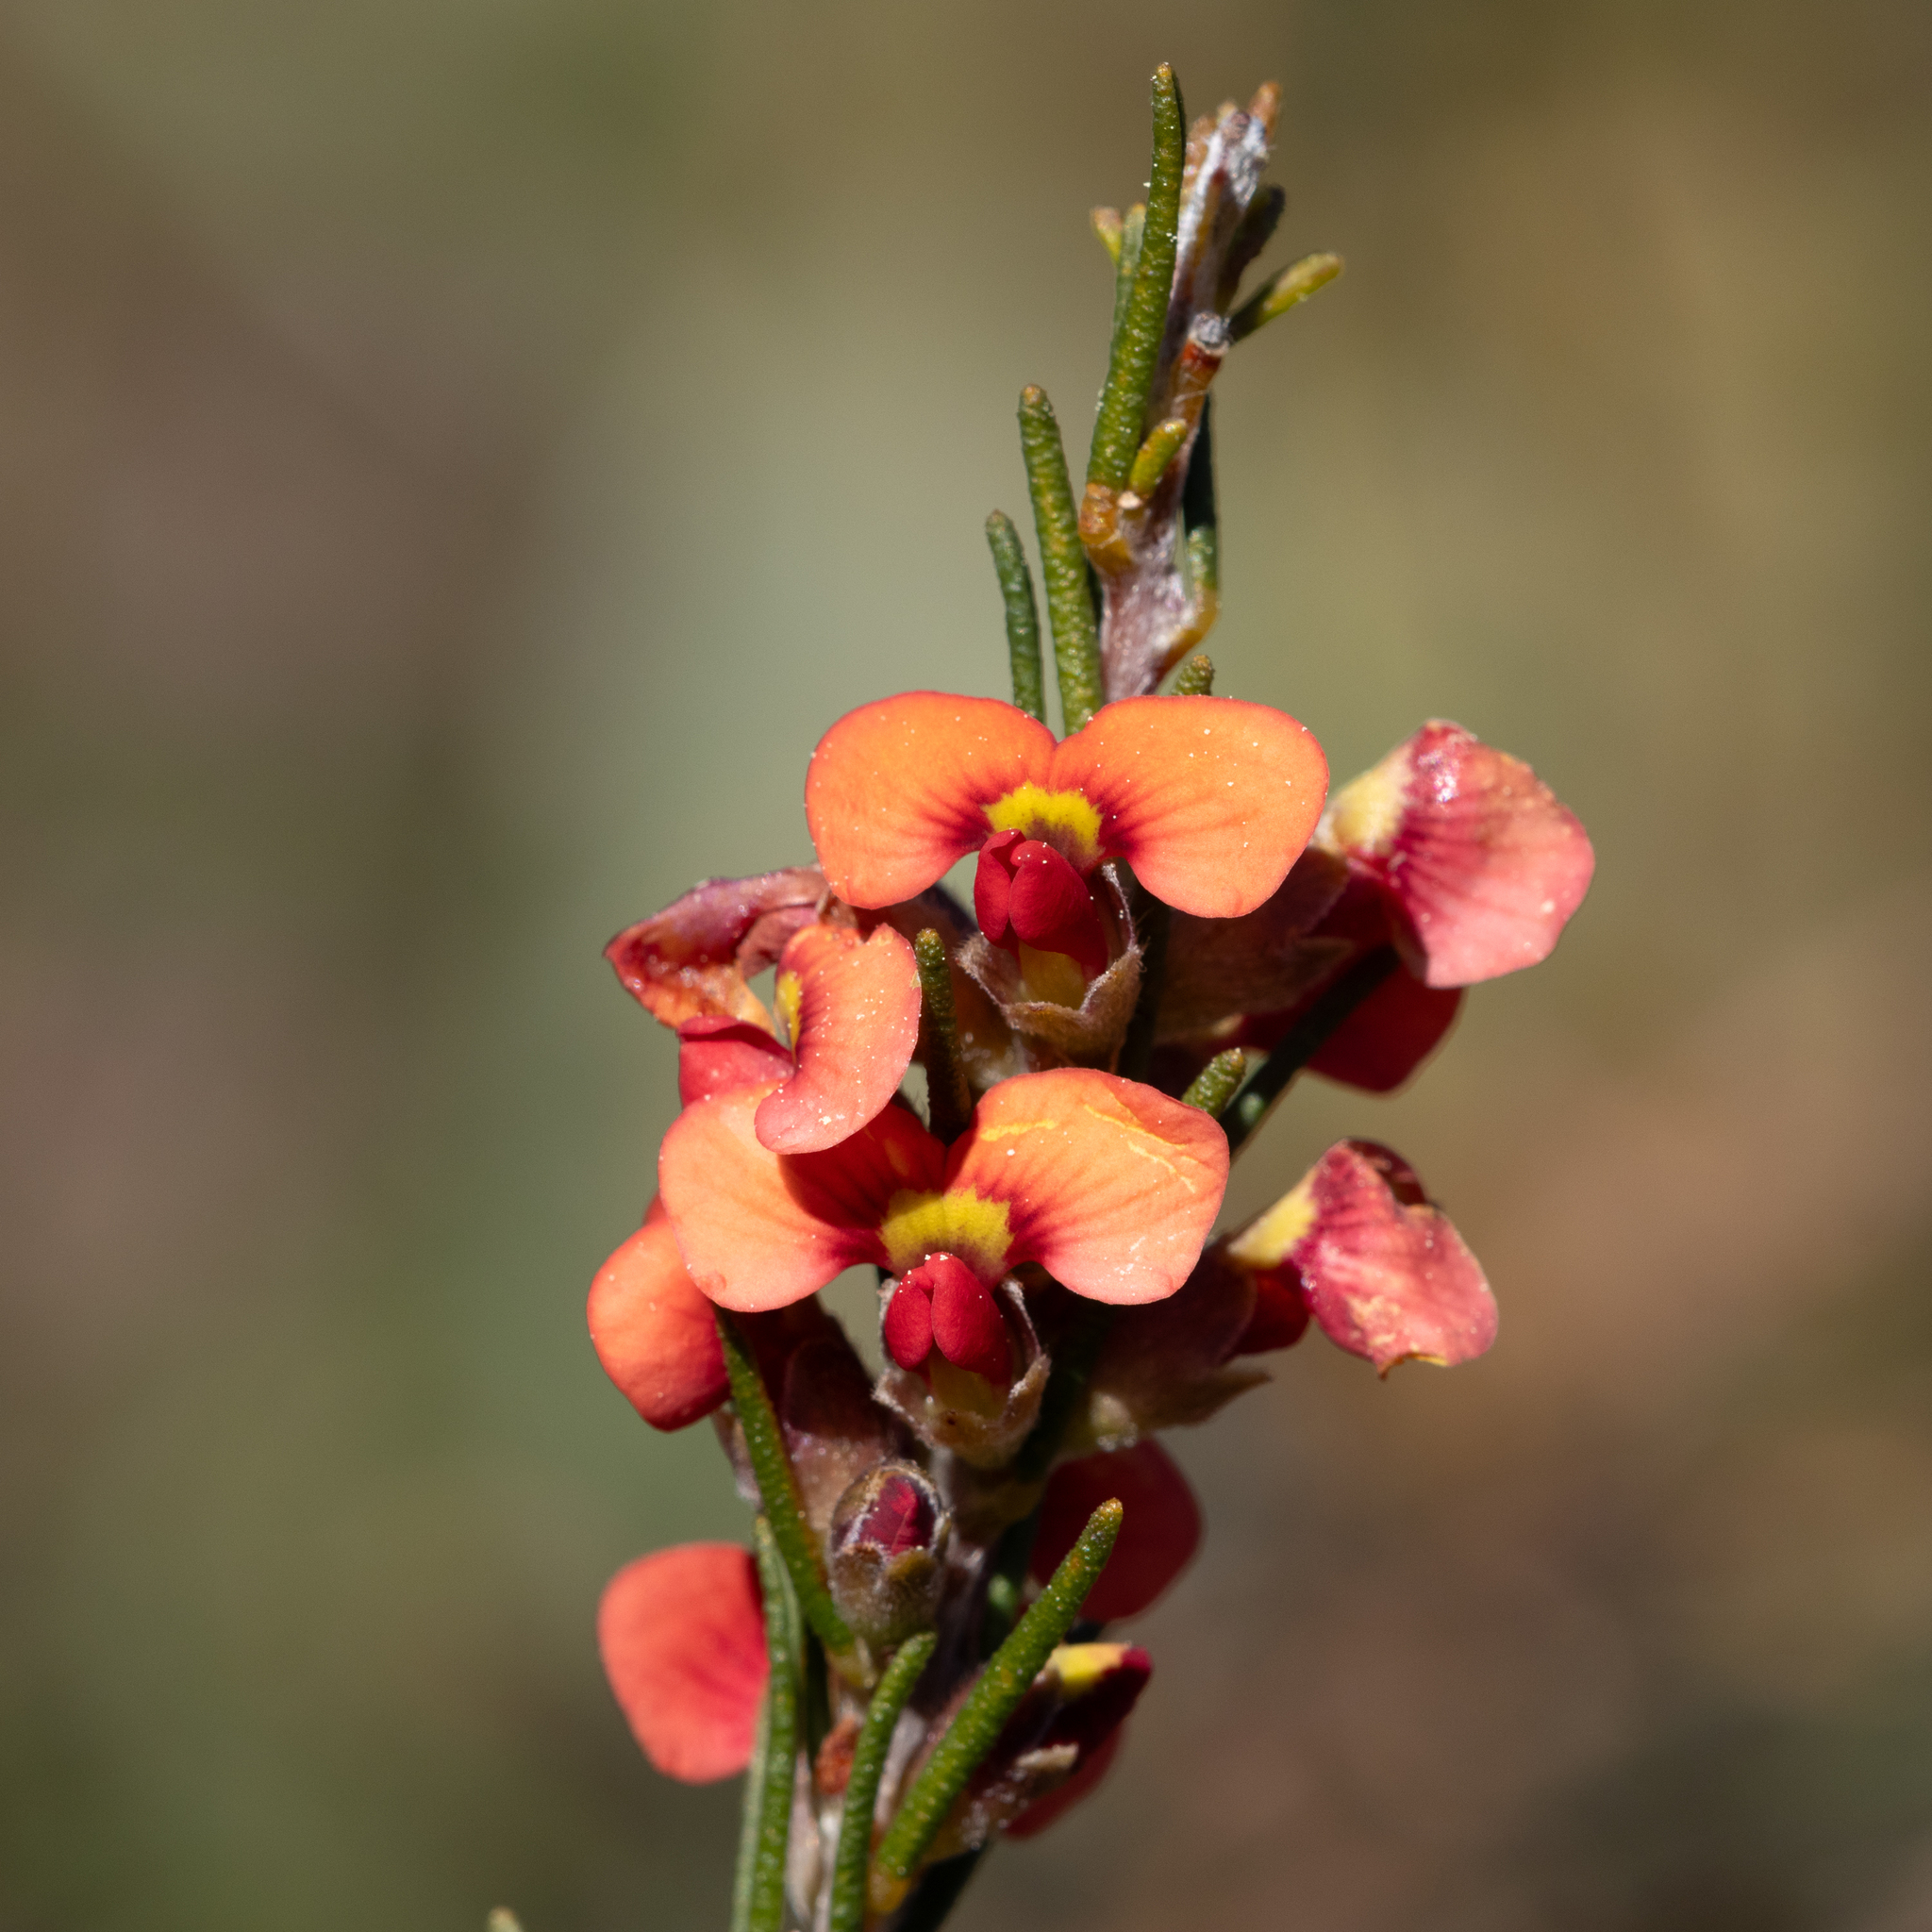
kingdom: Plantae
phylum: Tracheophyta
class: Magnoliopsida
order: Fabales
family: Fabaceae
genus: Dillwynia
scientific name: Dillwynia sericea
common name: Showy parrot-pea
